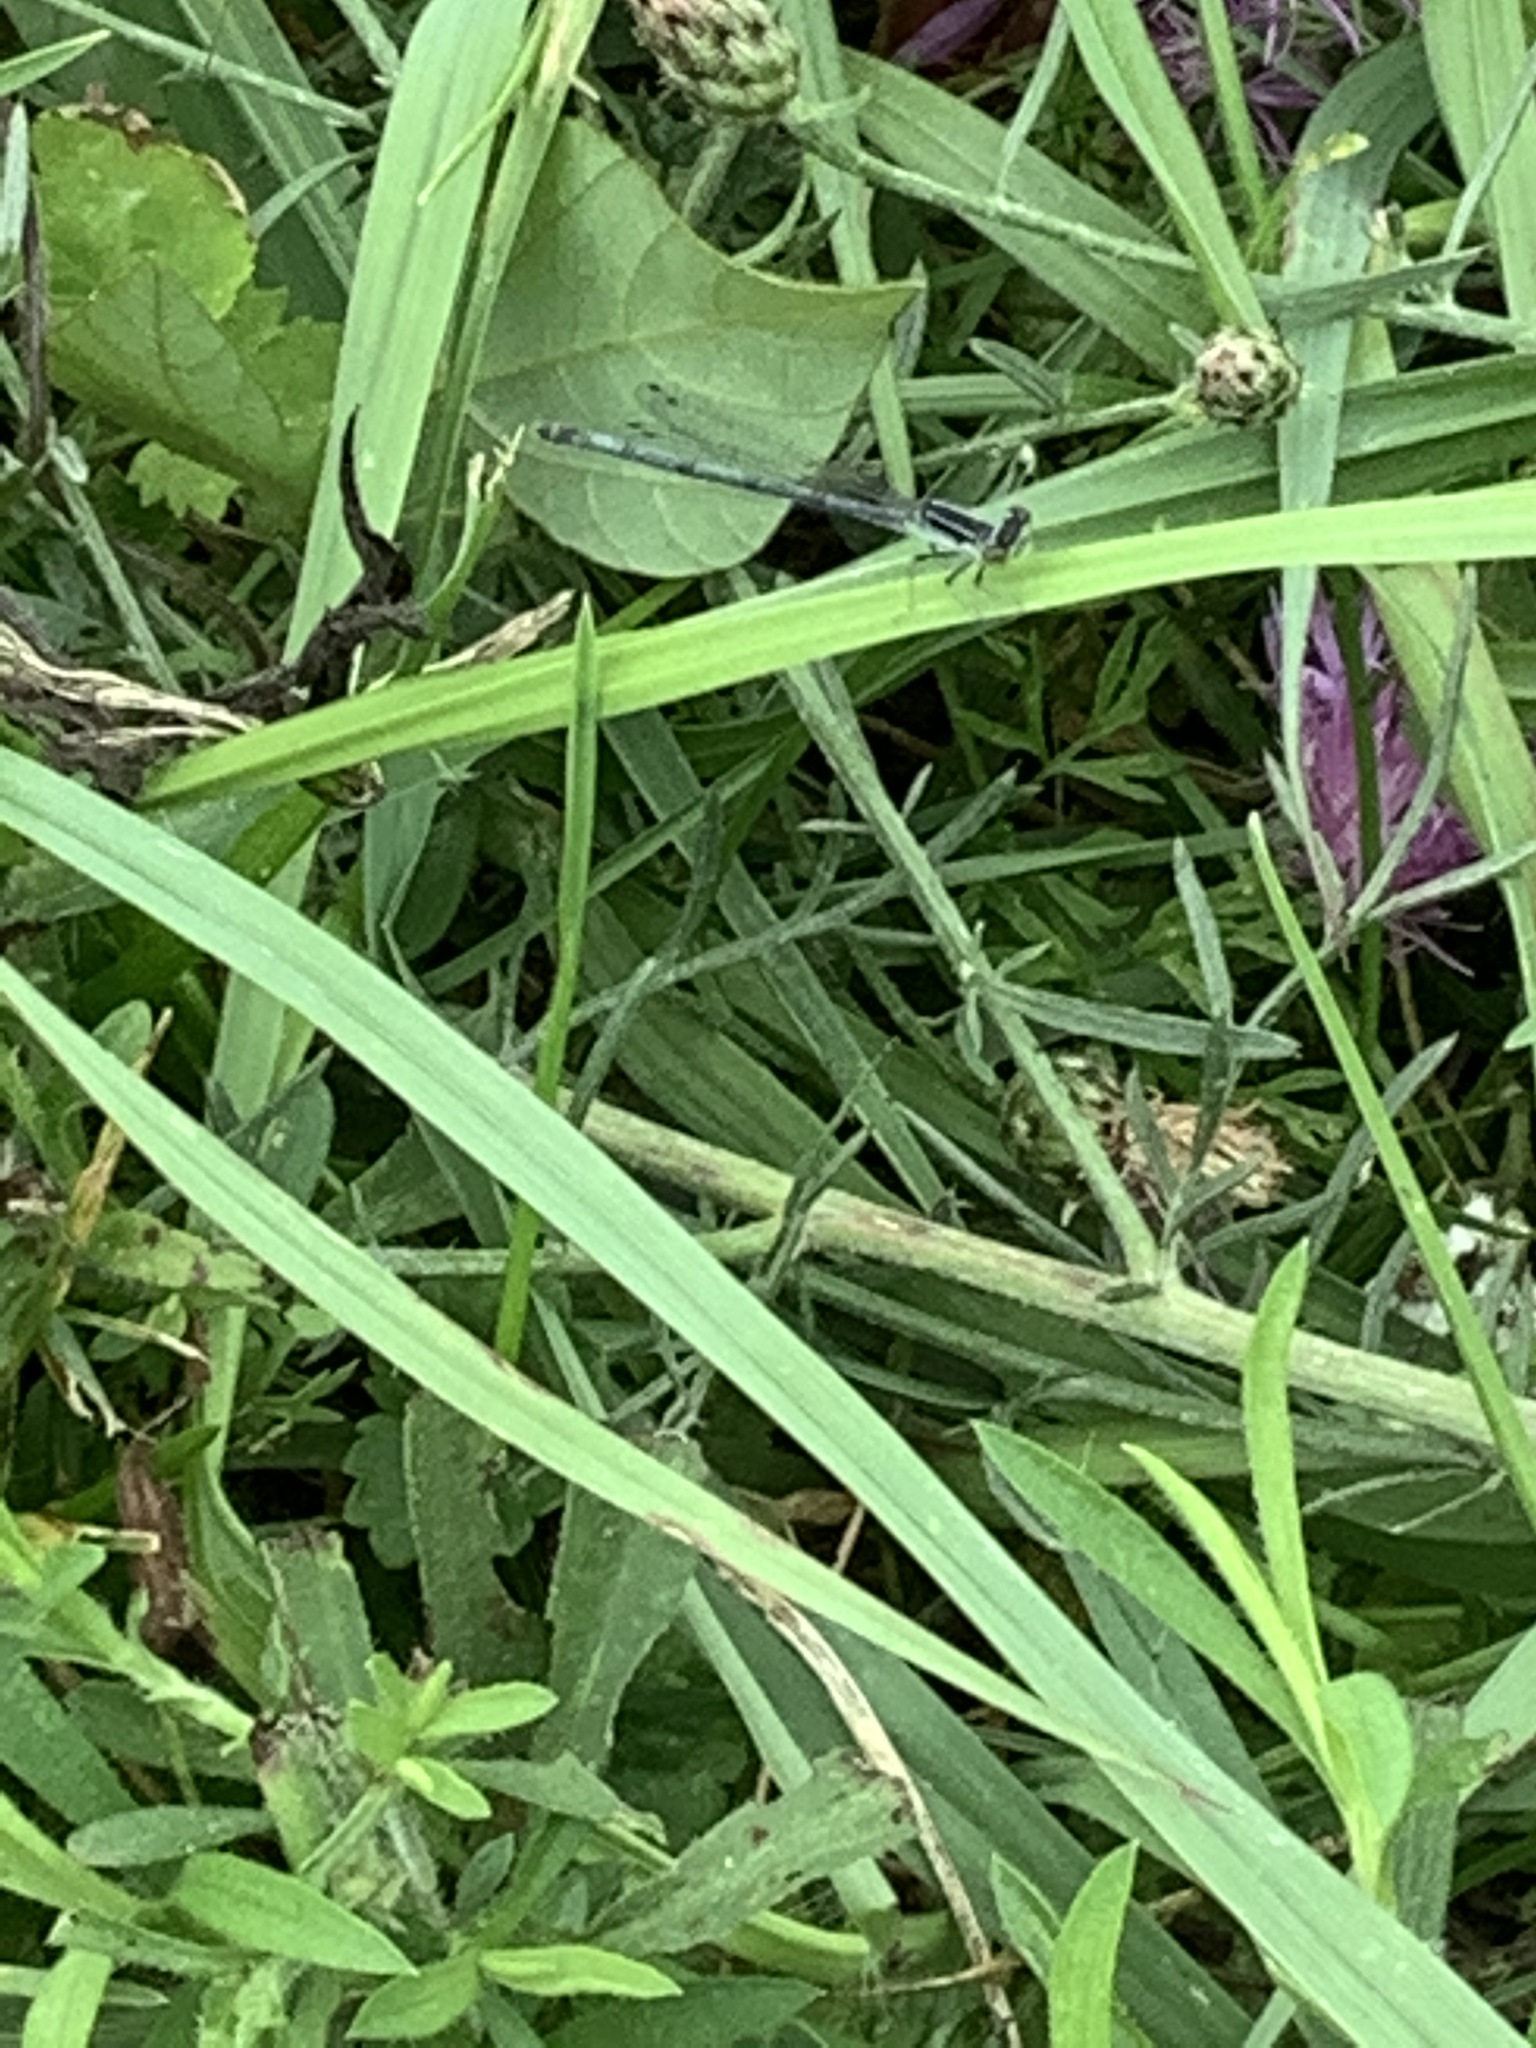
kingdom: Animalia
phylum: Arthropoda
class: Insecta
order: Odonata
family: Coenagrionidae
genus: Ischnura
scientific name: Ischnura verticalis
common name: Eastern forktail
